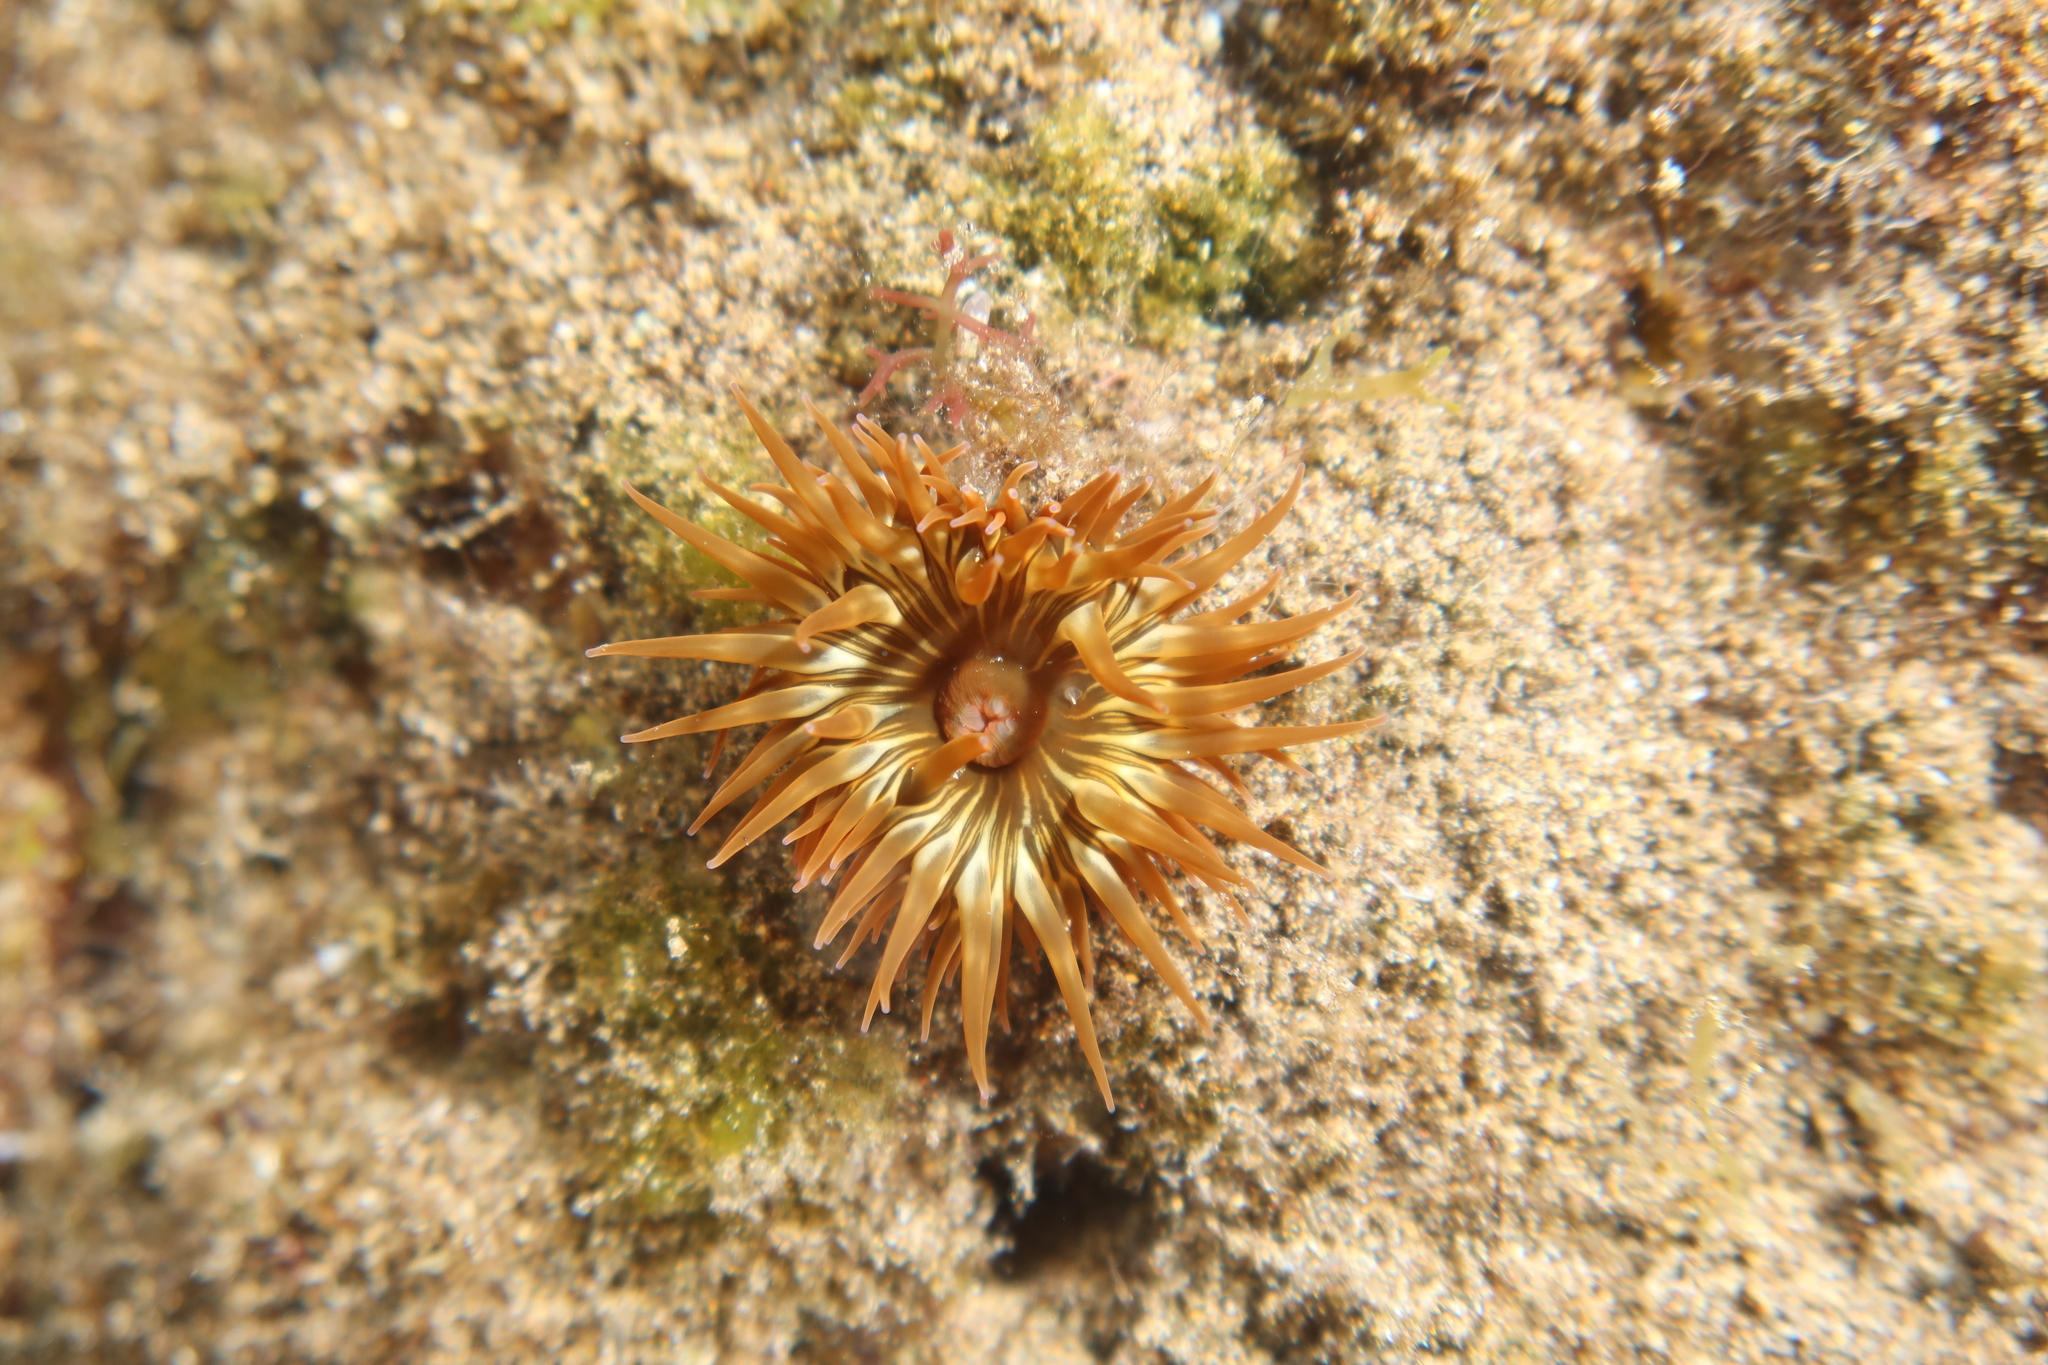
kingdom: Animalia
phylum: Cnidaria
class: Anthozoa
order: Actiniaria
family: Actiniidae
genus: Anemonia
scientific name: Anemonia sargassensis
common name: Sargassum anemone
